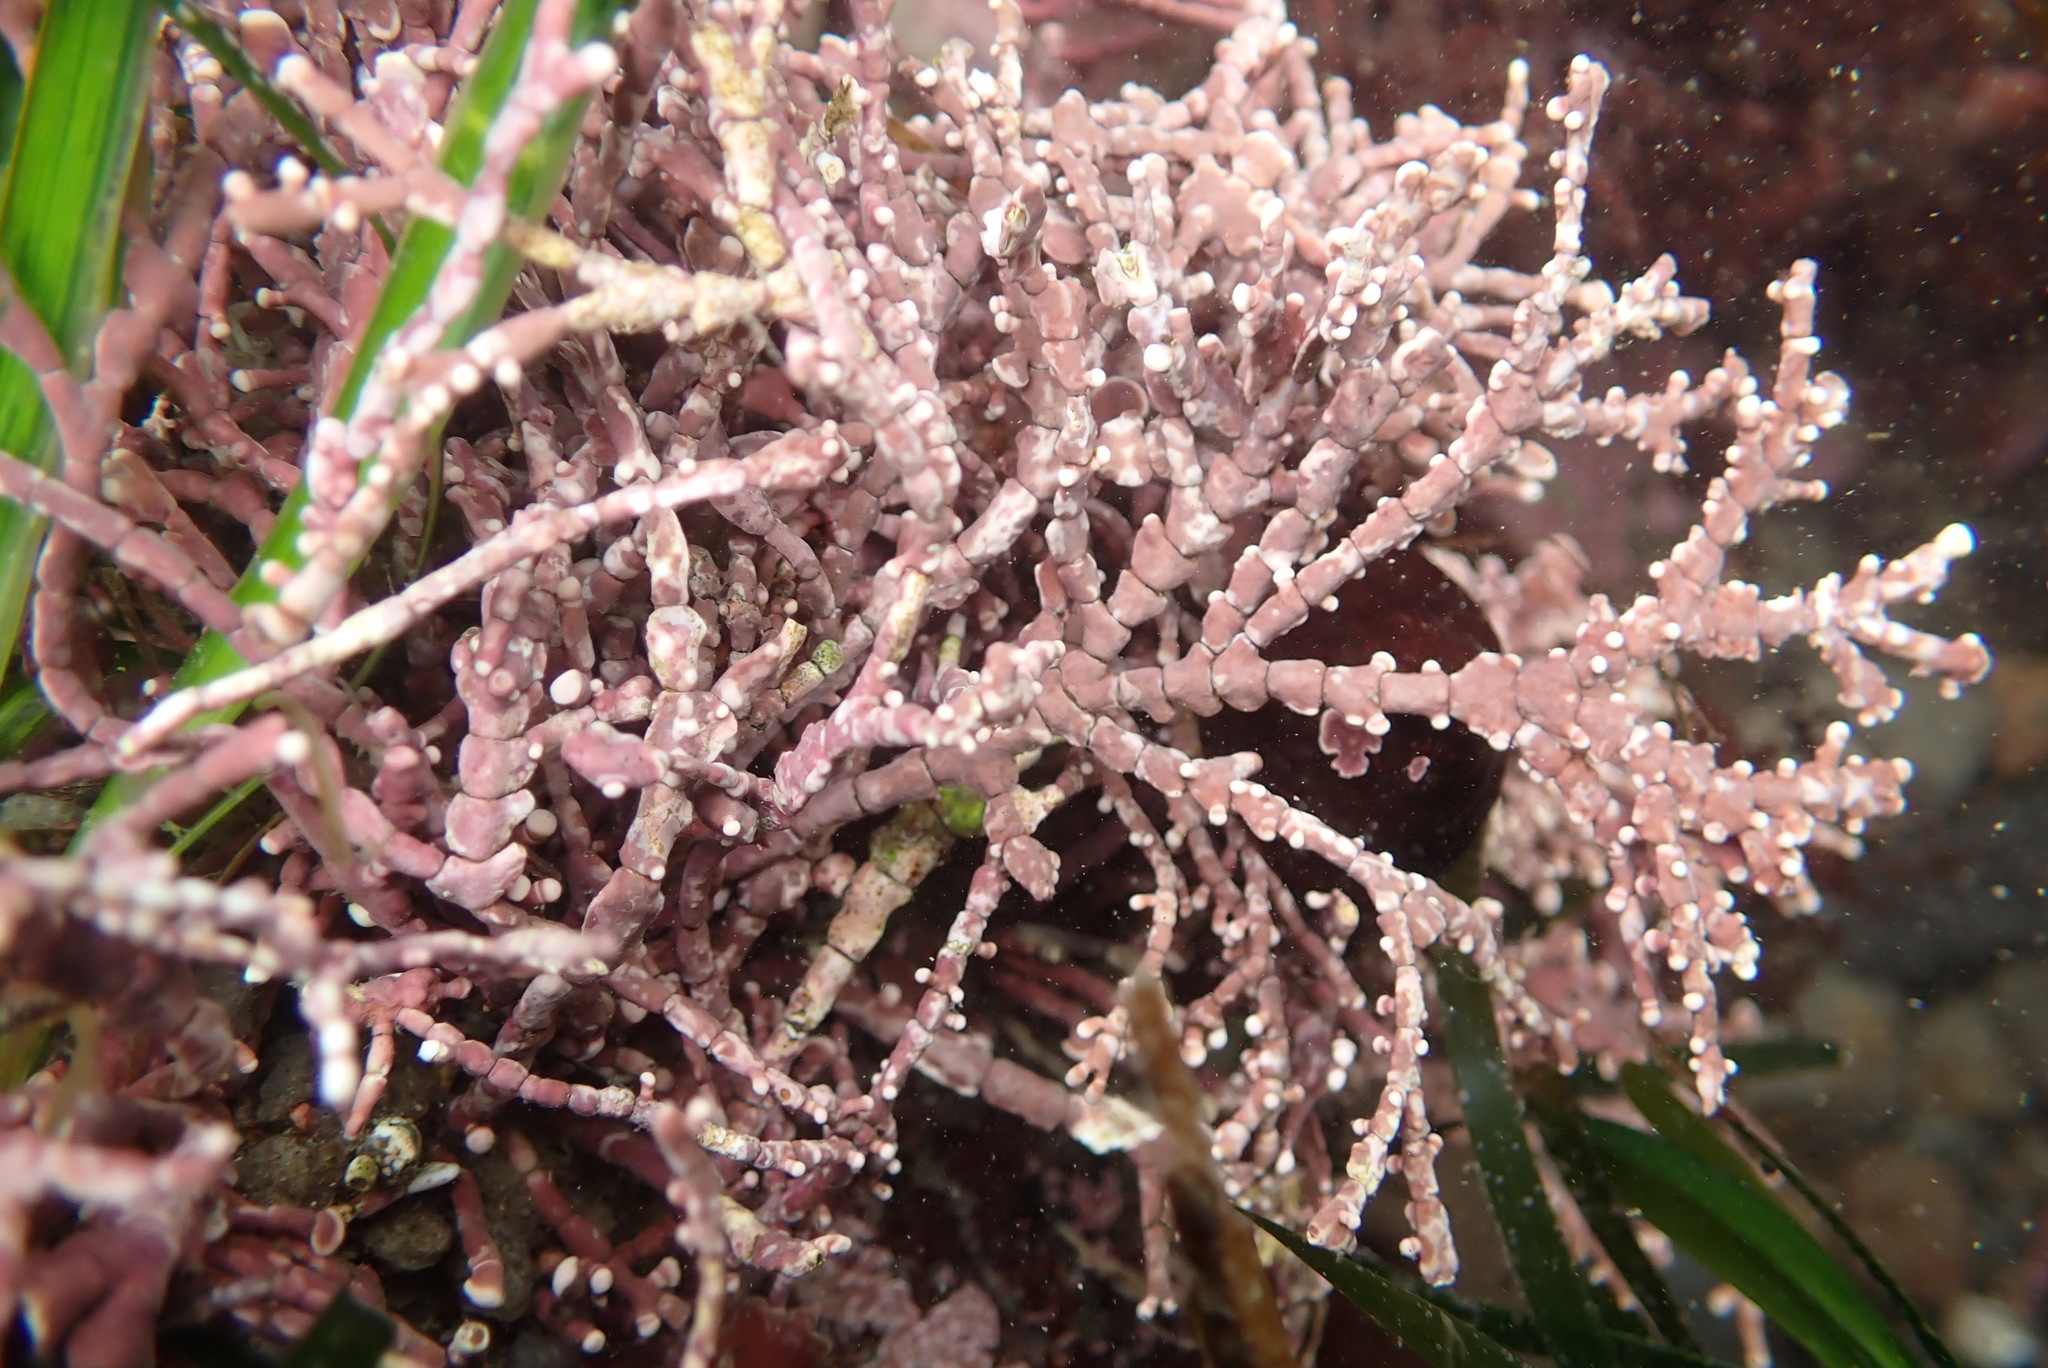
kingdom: Plantae
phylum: Rhodophyta
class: Florideophyceae
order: Corallinales
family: Corallinaceae
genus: Calliarthron
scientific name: Calliarthron tuberculosum
